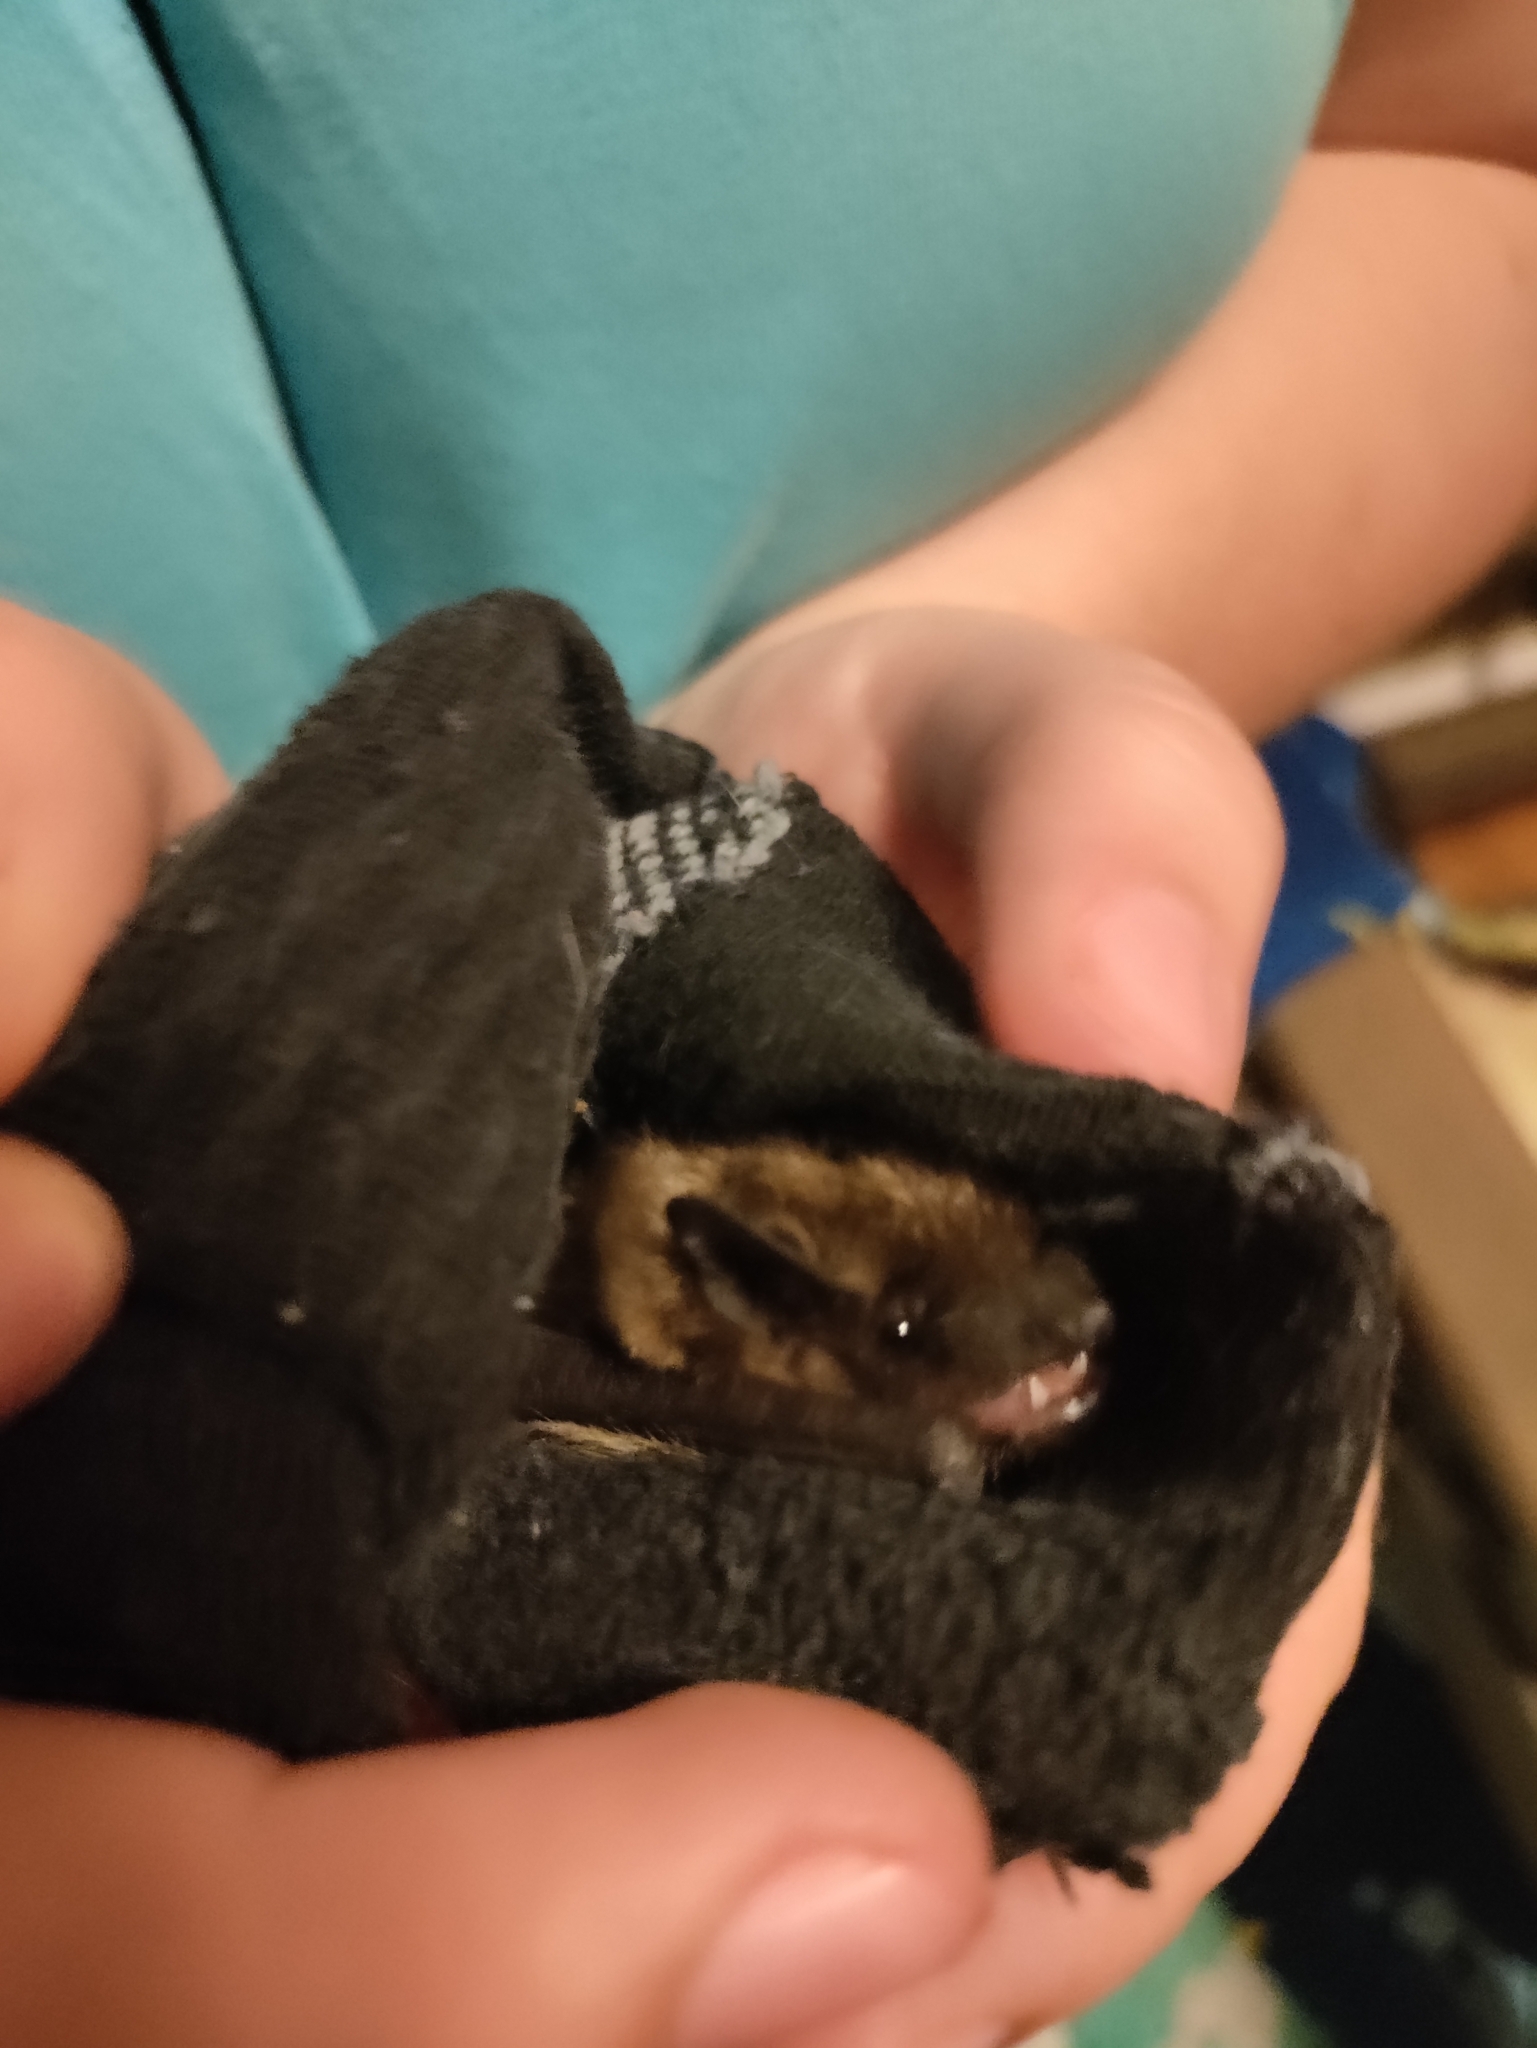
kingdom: Animalia
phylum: Chordata
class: Mammalia
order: Chiroptera
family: Vespertilionidae
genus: Eptesicus
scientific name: Eptesicus fuscus
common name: Big brown bat
